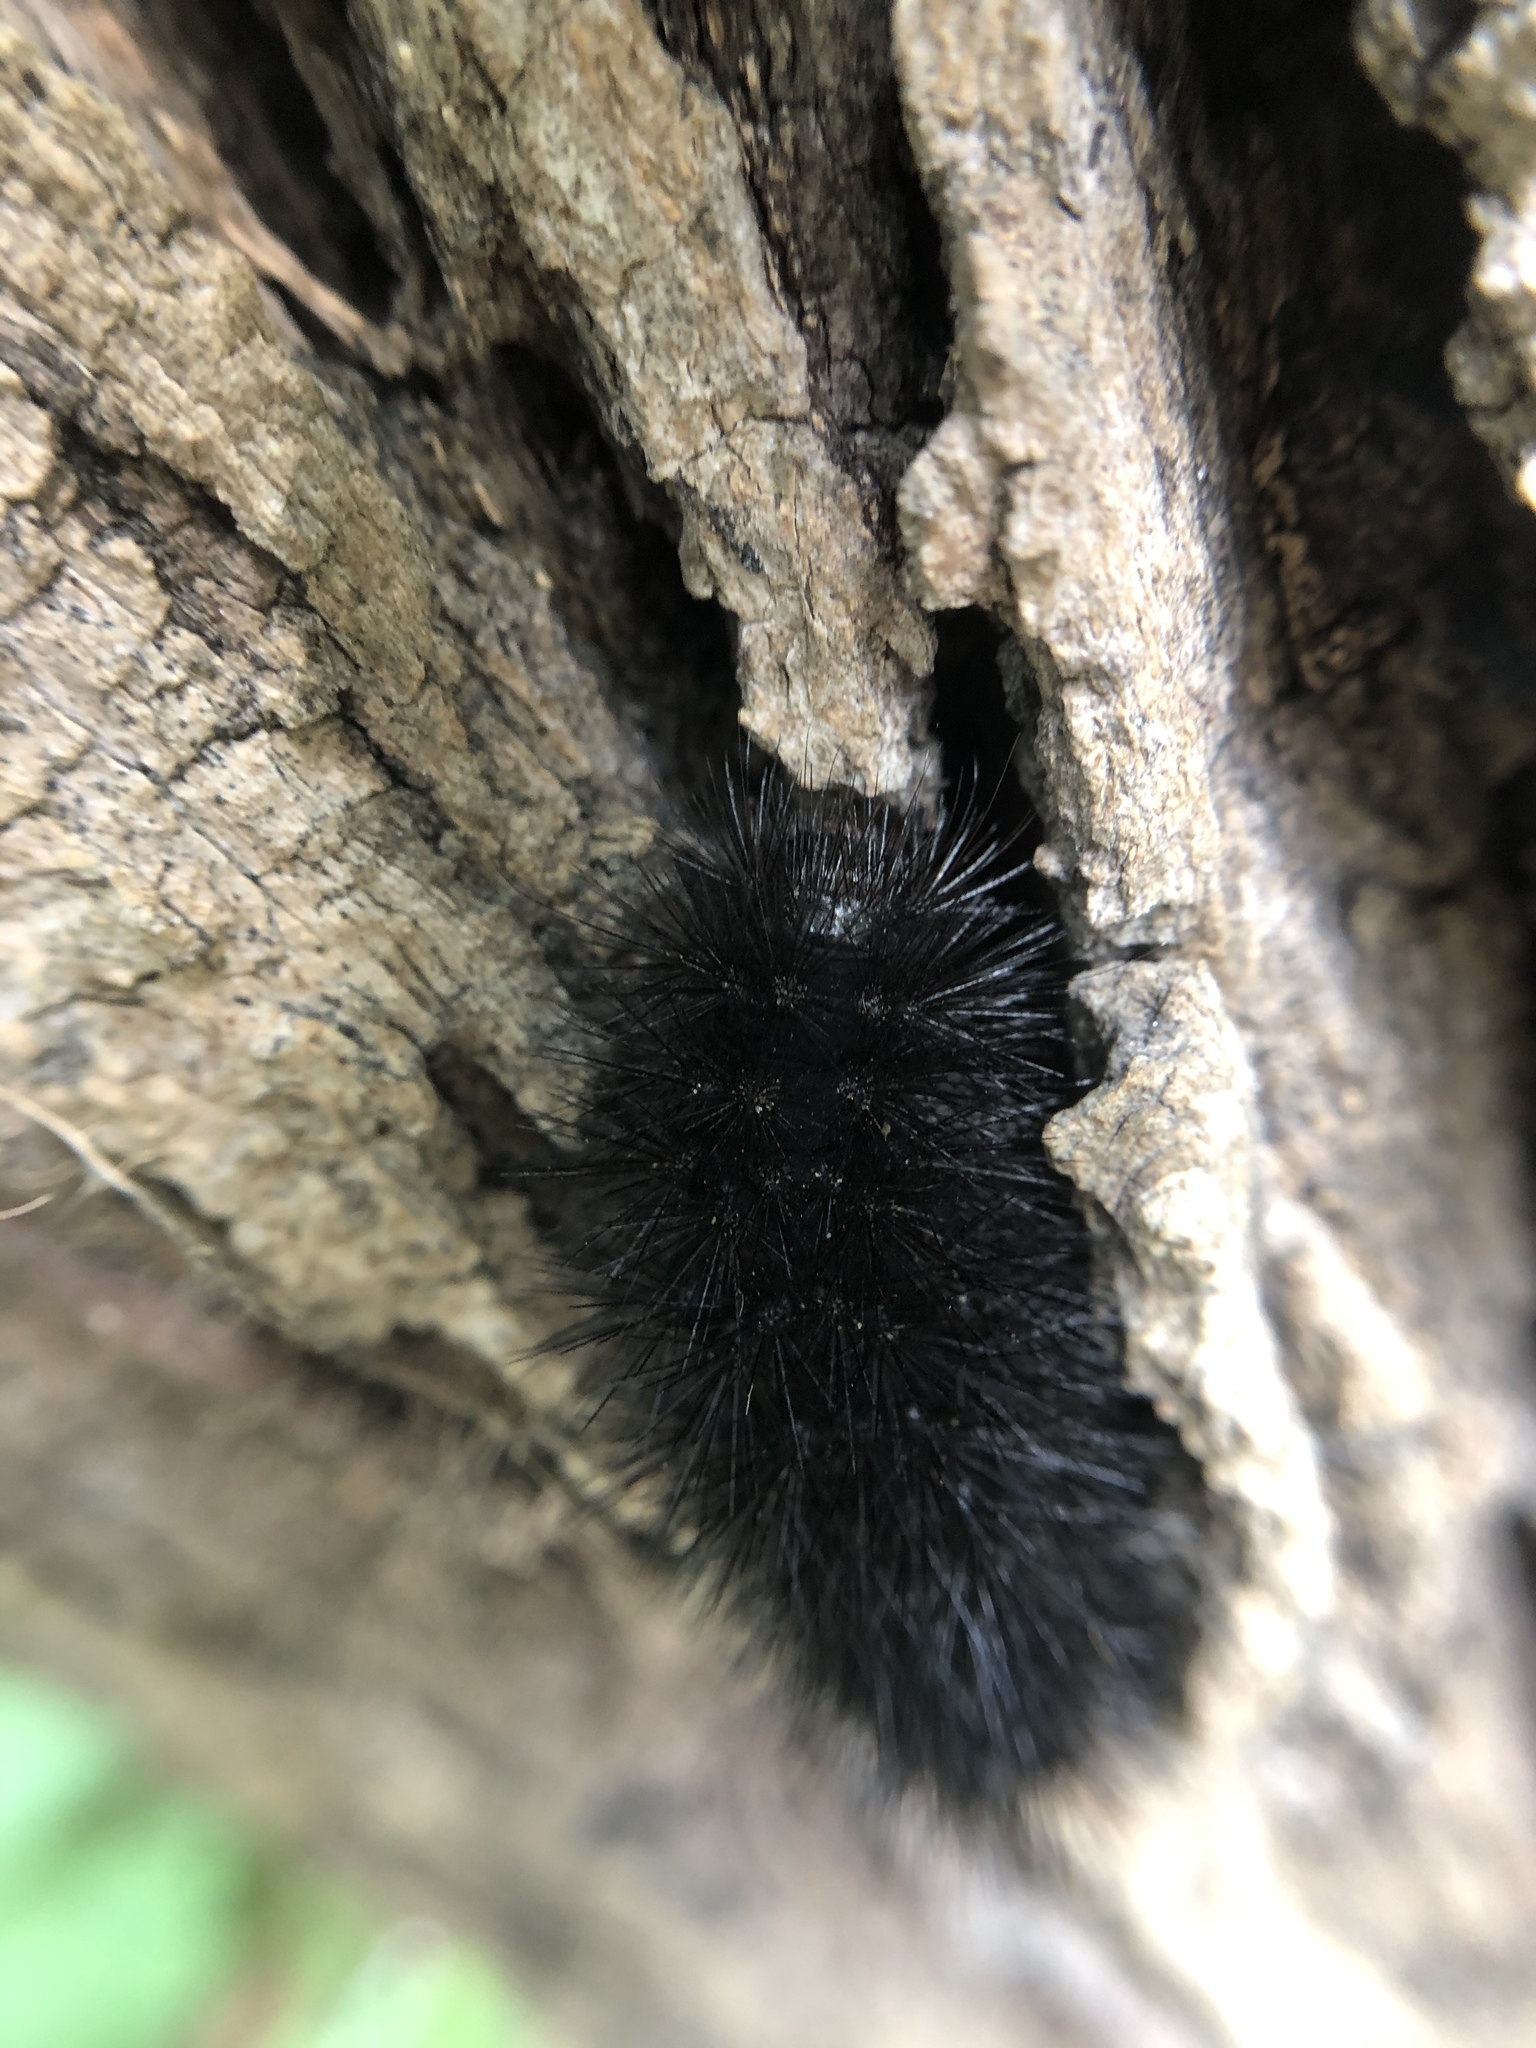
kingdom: Animalia
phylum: Arthropoda
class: Insecta
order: Lepidoptera
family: Erebidae
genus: Hypercompe
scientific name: Hypercompe scribonia
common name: Giant leopard moth
